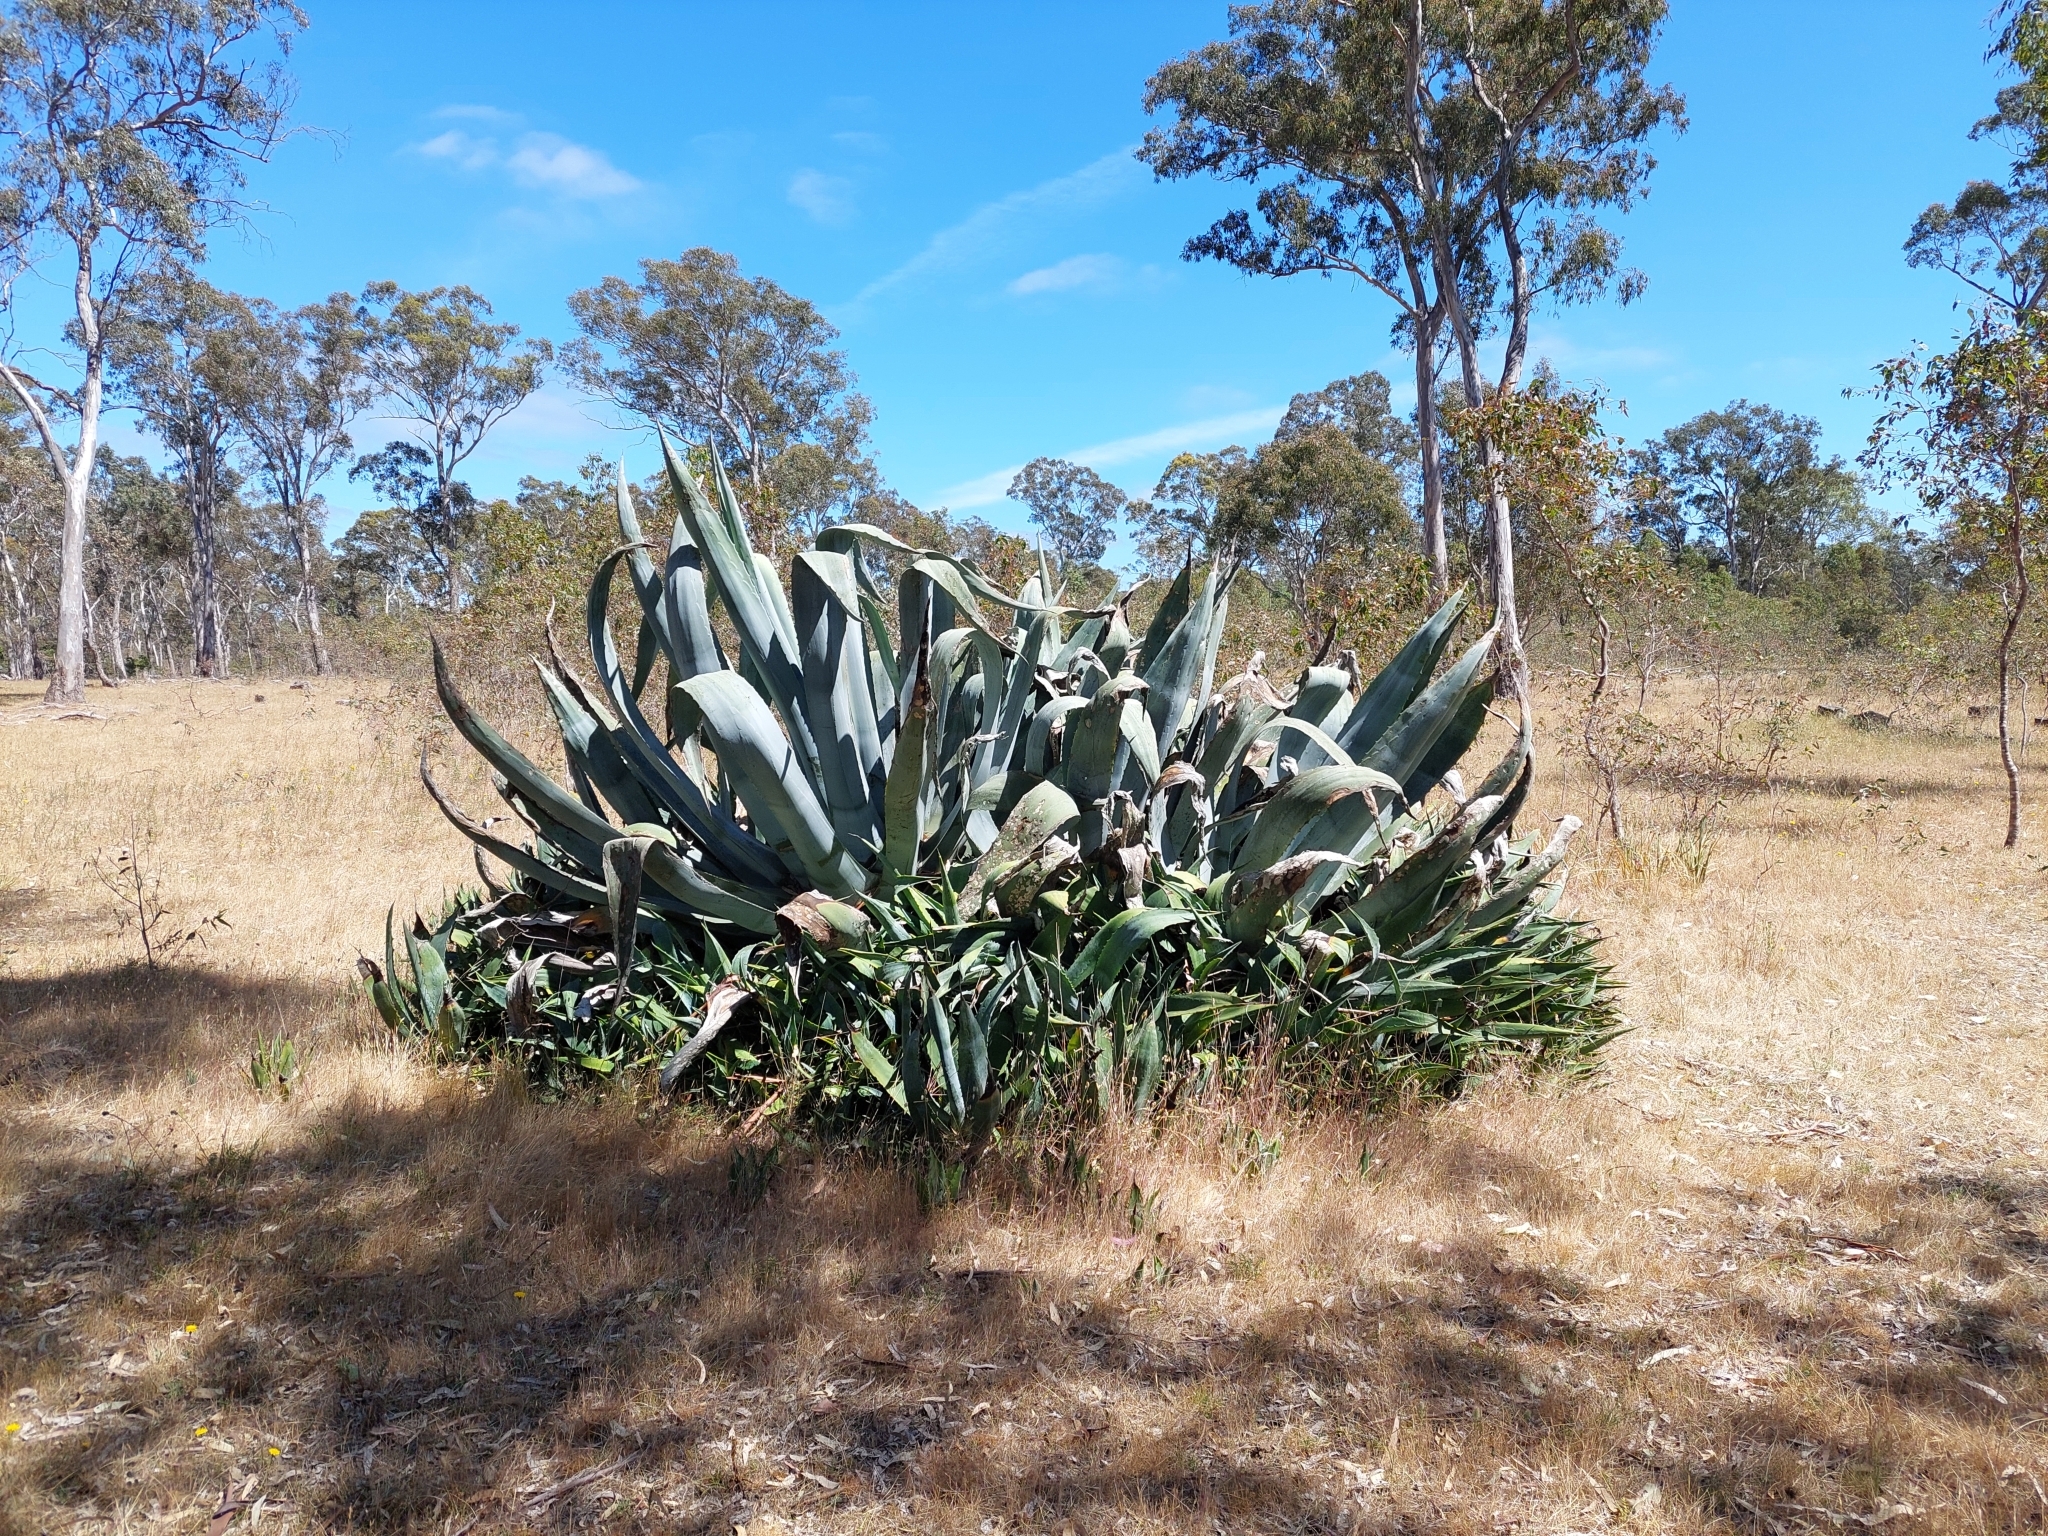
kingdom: Plantae
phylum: Tracheophyta
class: Liliopsida
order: Asparagales
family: Asparagaceae
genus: Agave
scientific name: Agave americana
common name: Centuryplant
